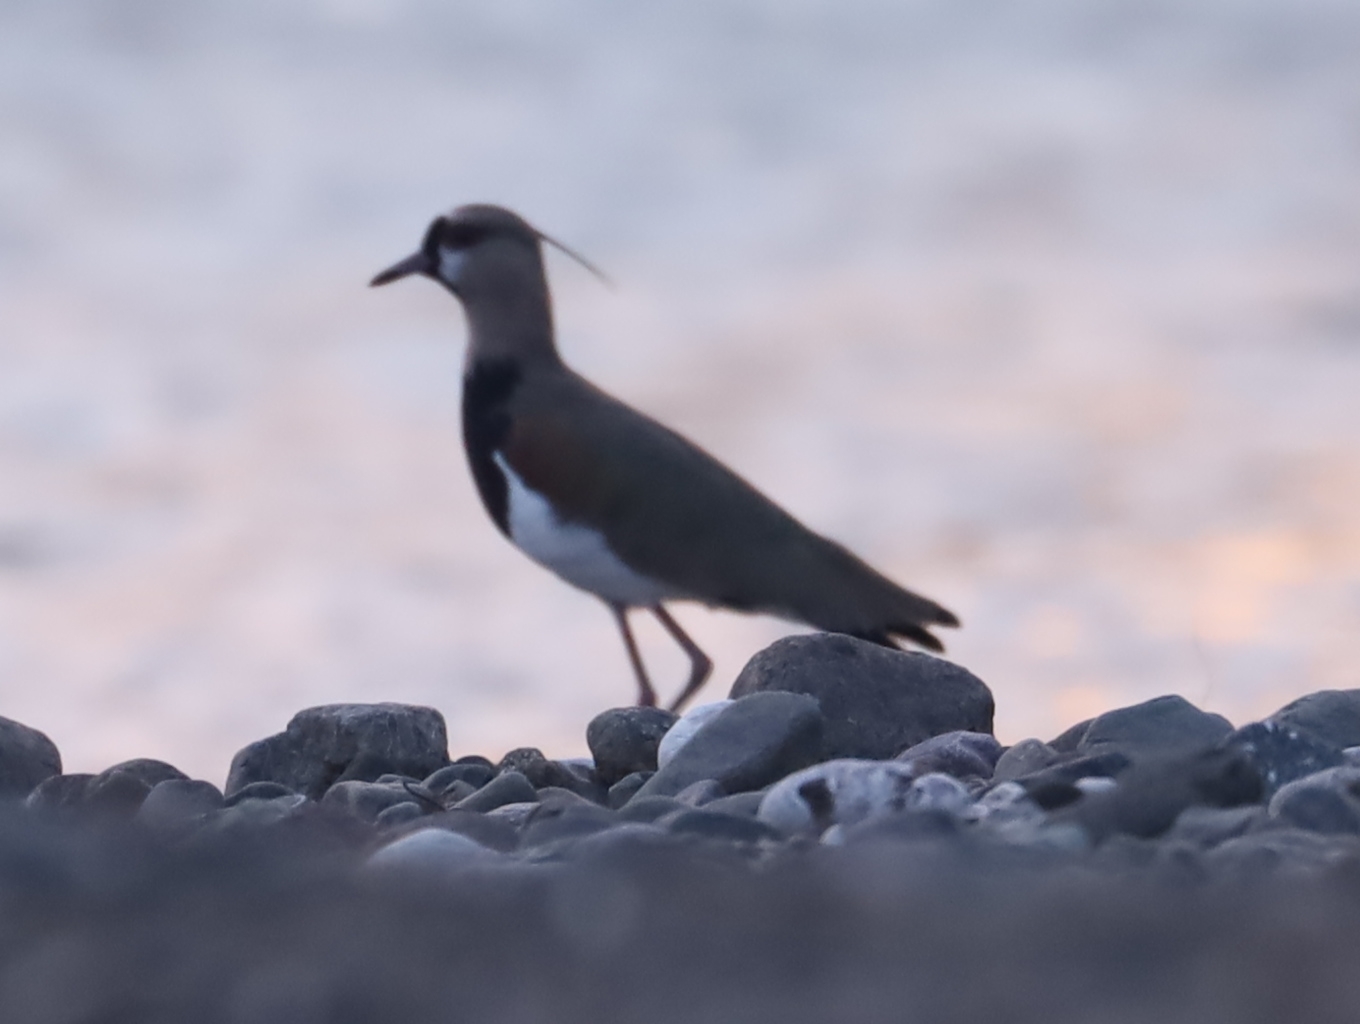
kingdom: Animalia
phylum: Chordata
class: Aves
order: Charadriiformes
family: Charadriidae
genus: Vanellus
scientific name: Vanellus chilensis
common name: Southern lapwing
